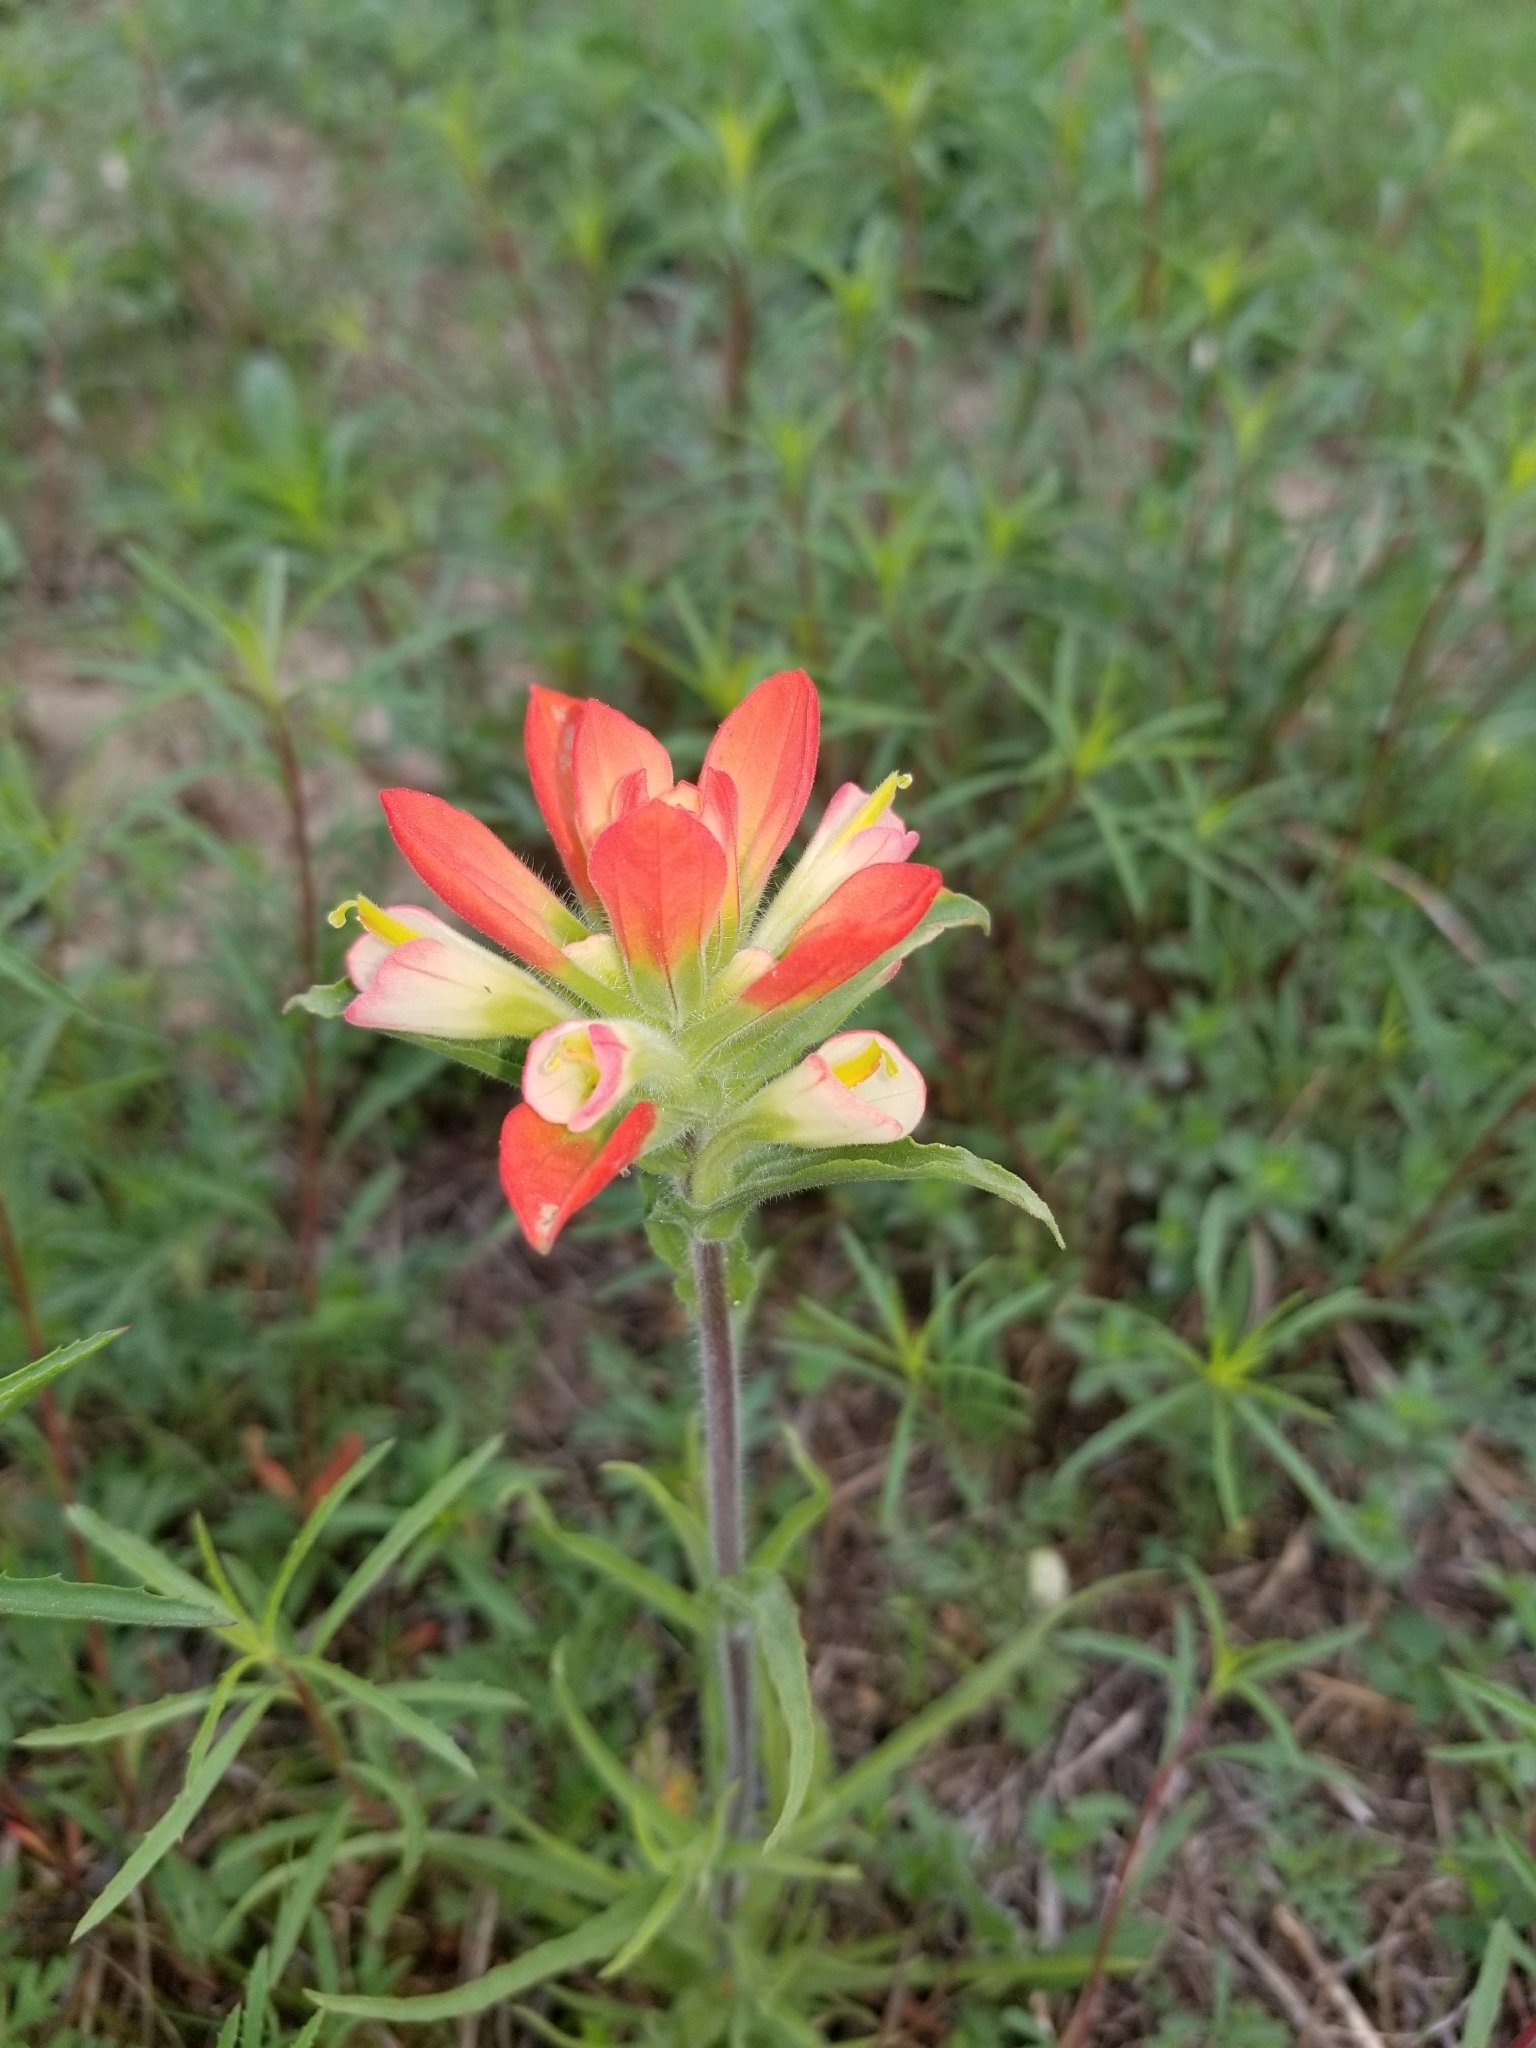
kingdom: Plantae
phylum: Tracheophyta
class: Magnoliopsida
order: Lamiales
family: Orobanchaceae
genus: Castilleja
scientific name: Castilleja indivisa
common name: Texas paintbrush
